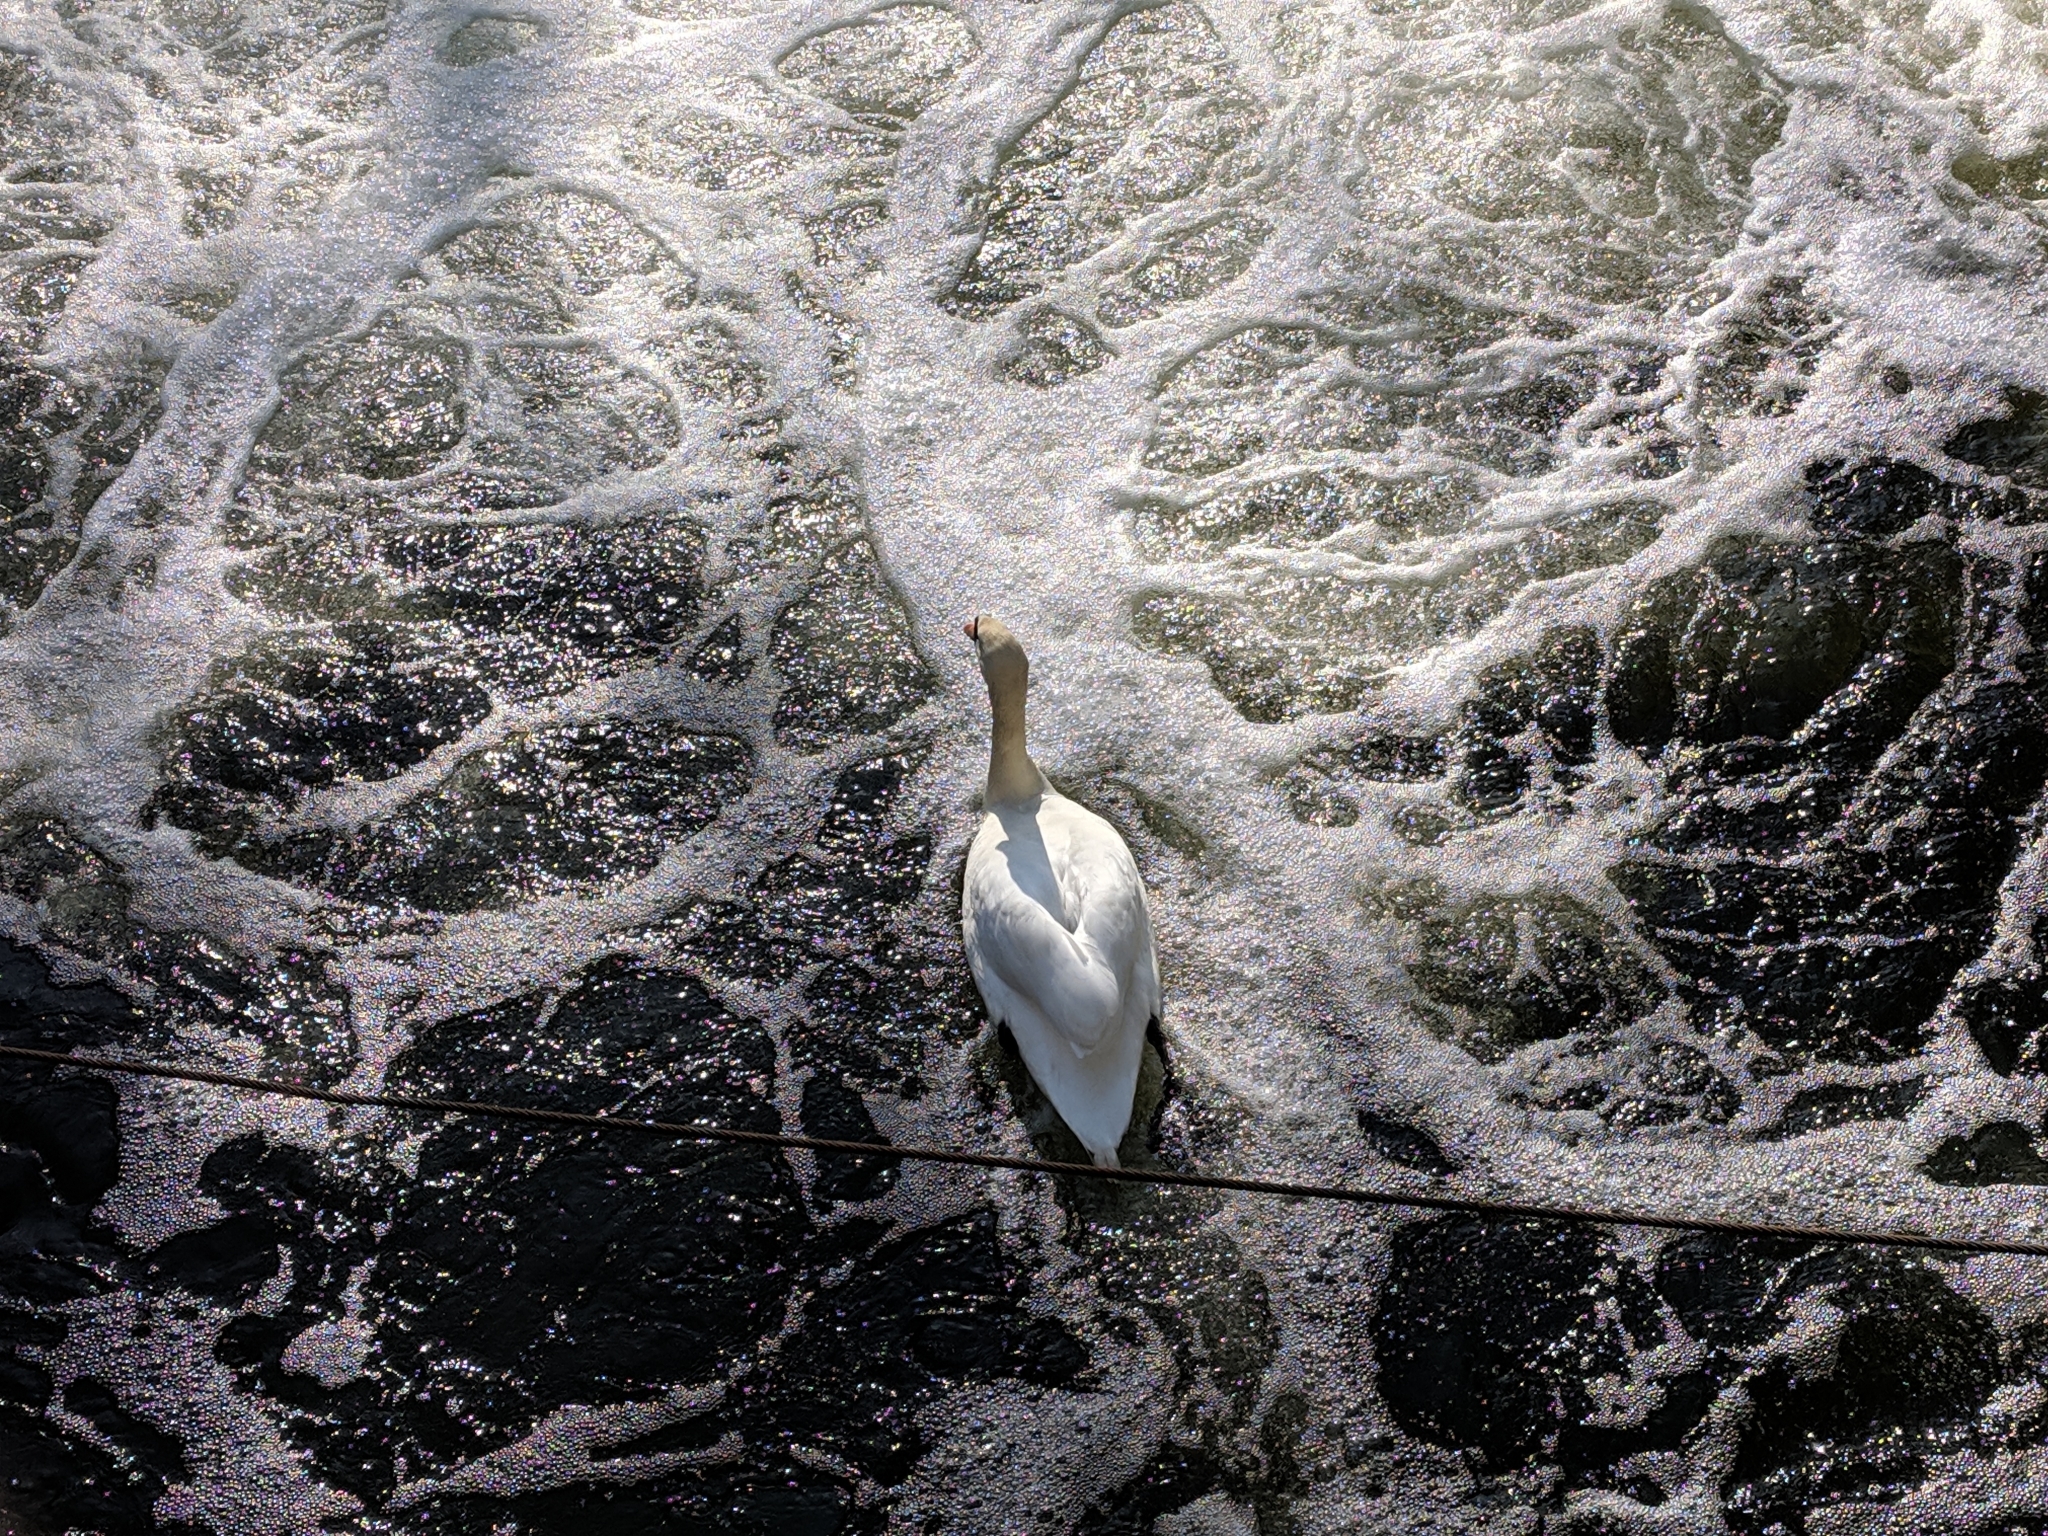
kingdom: Animalia
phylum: Chordata
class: Aves
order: Anseriformes
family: Anatidae
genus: Cygnus
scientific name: Cygnus olor
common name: Mute swan
